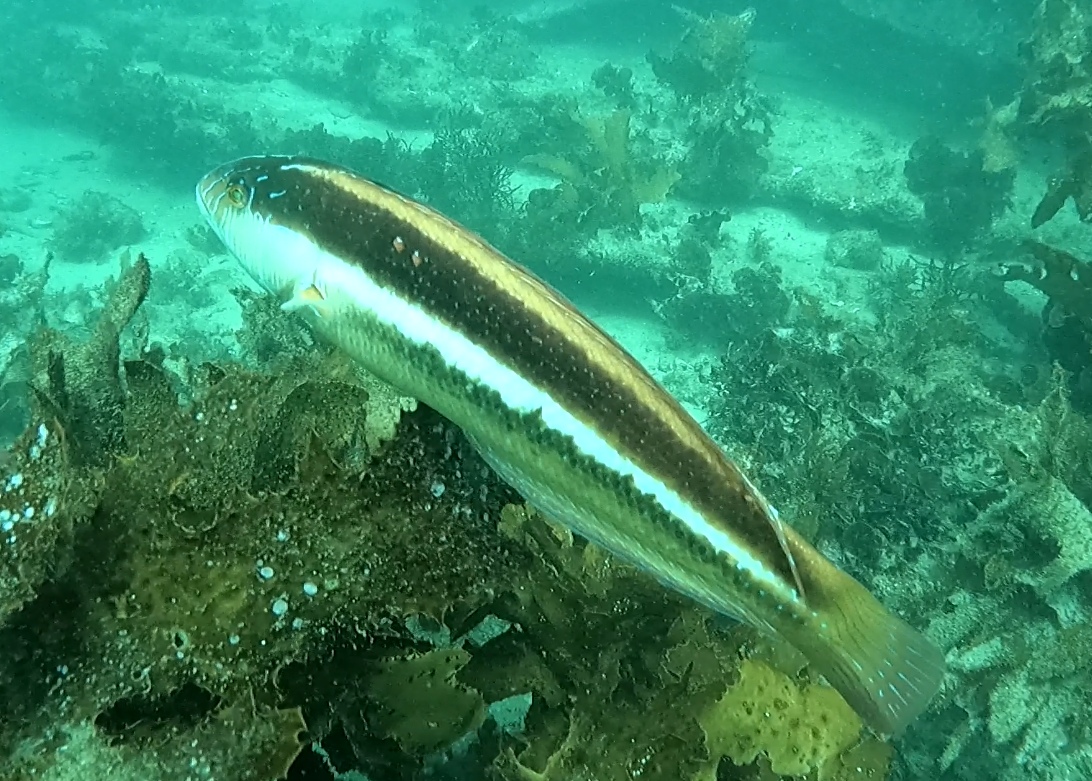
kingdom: Animalia
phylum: Chordata
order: Perciformes
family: Labridae
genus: Ophthalmolepis
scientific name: Ophthalmolepis lineolata
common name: Maori wrasse
